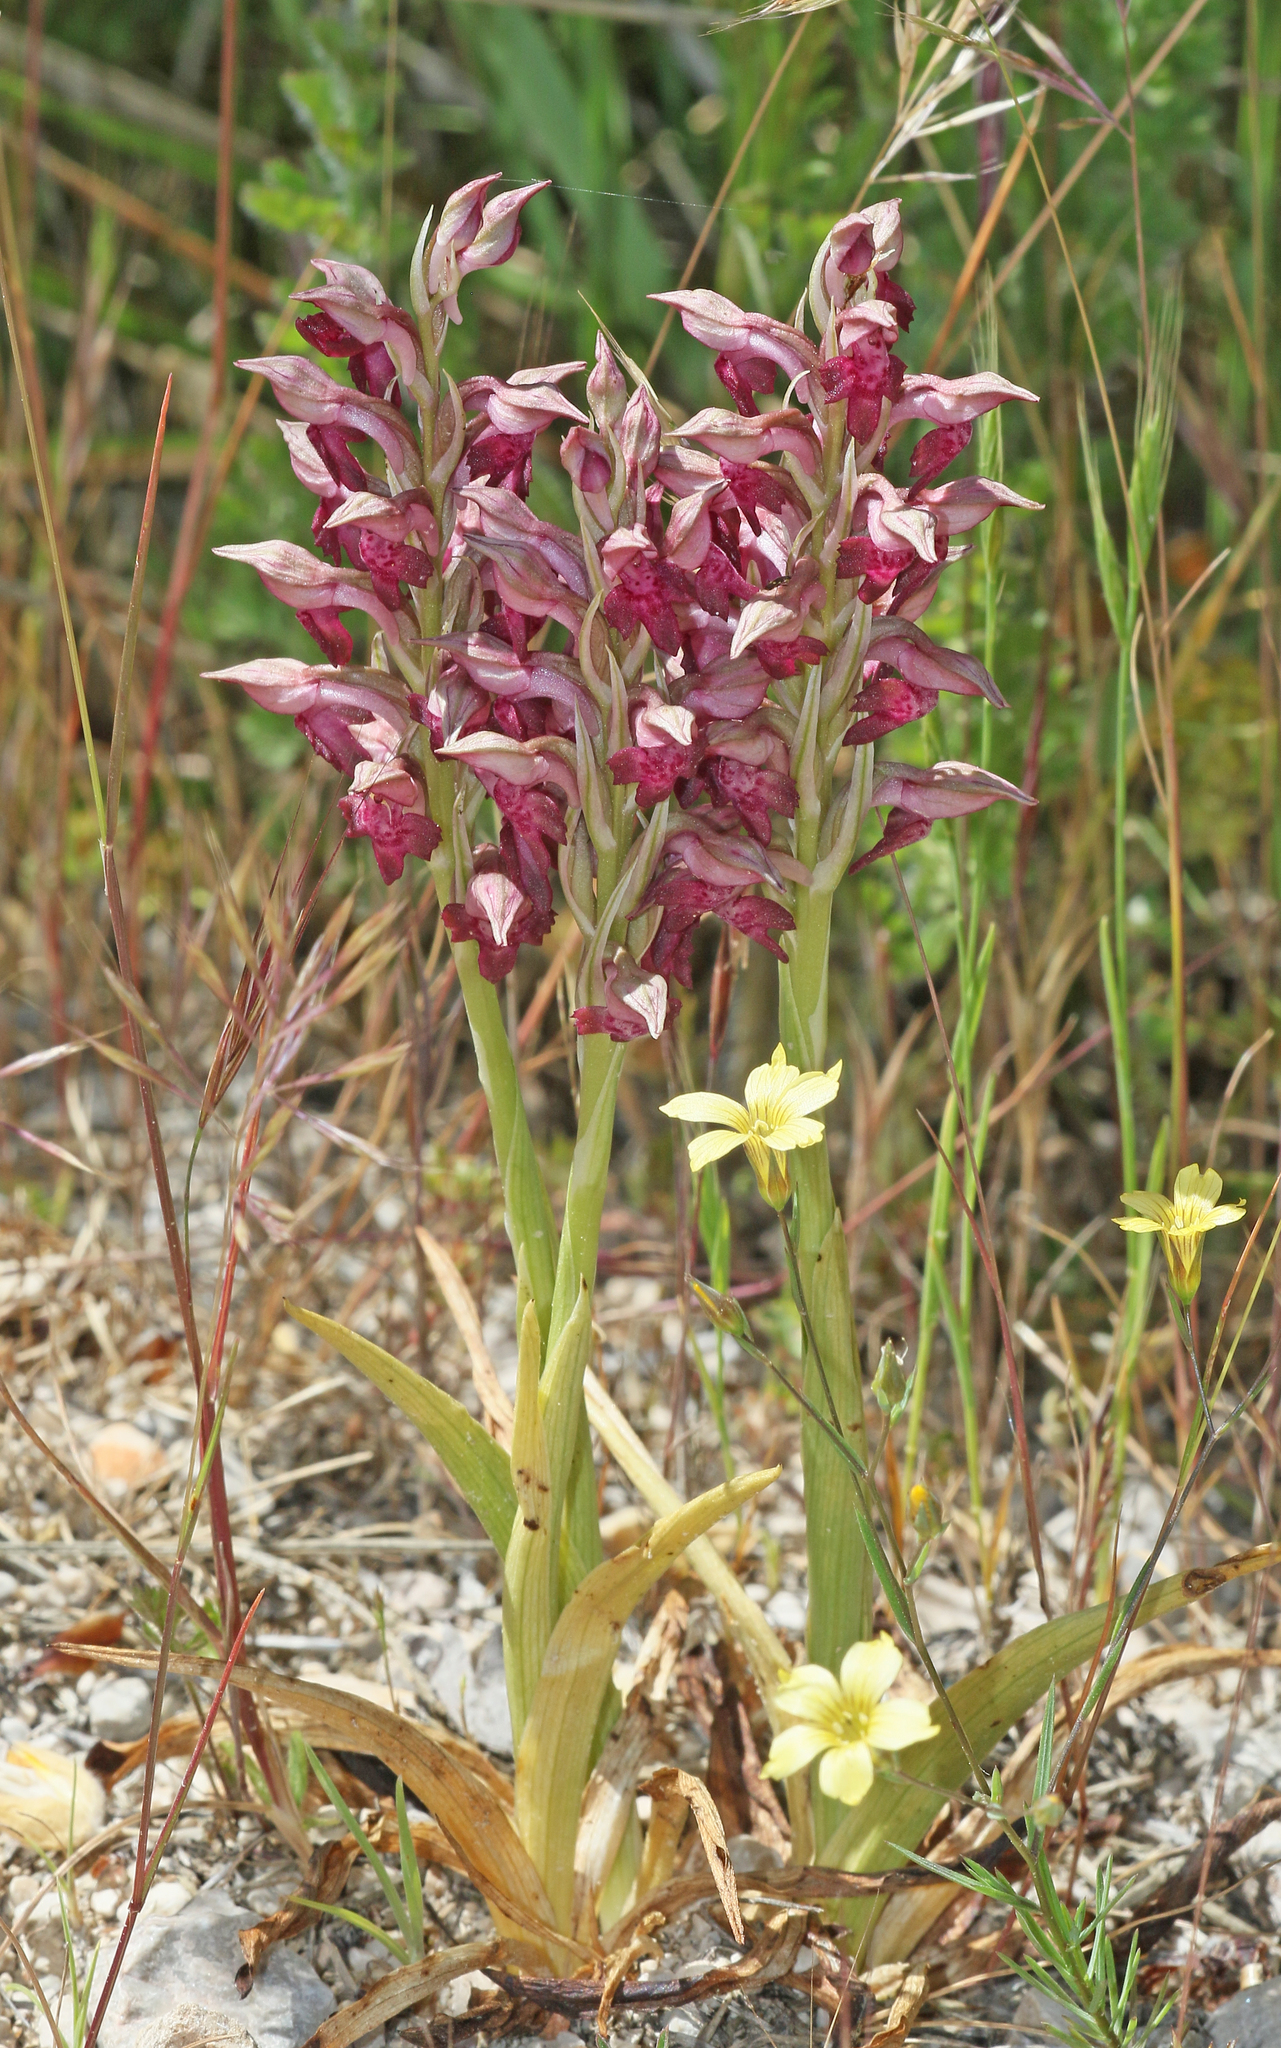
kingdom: Plantae
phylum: Tracheophyta
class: Liliopsida
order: Asparagales
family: Orchidaceae
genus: Anacamptis
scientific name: Anacamptis coriophora
